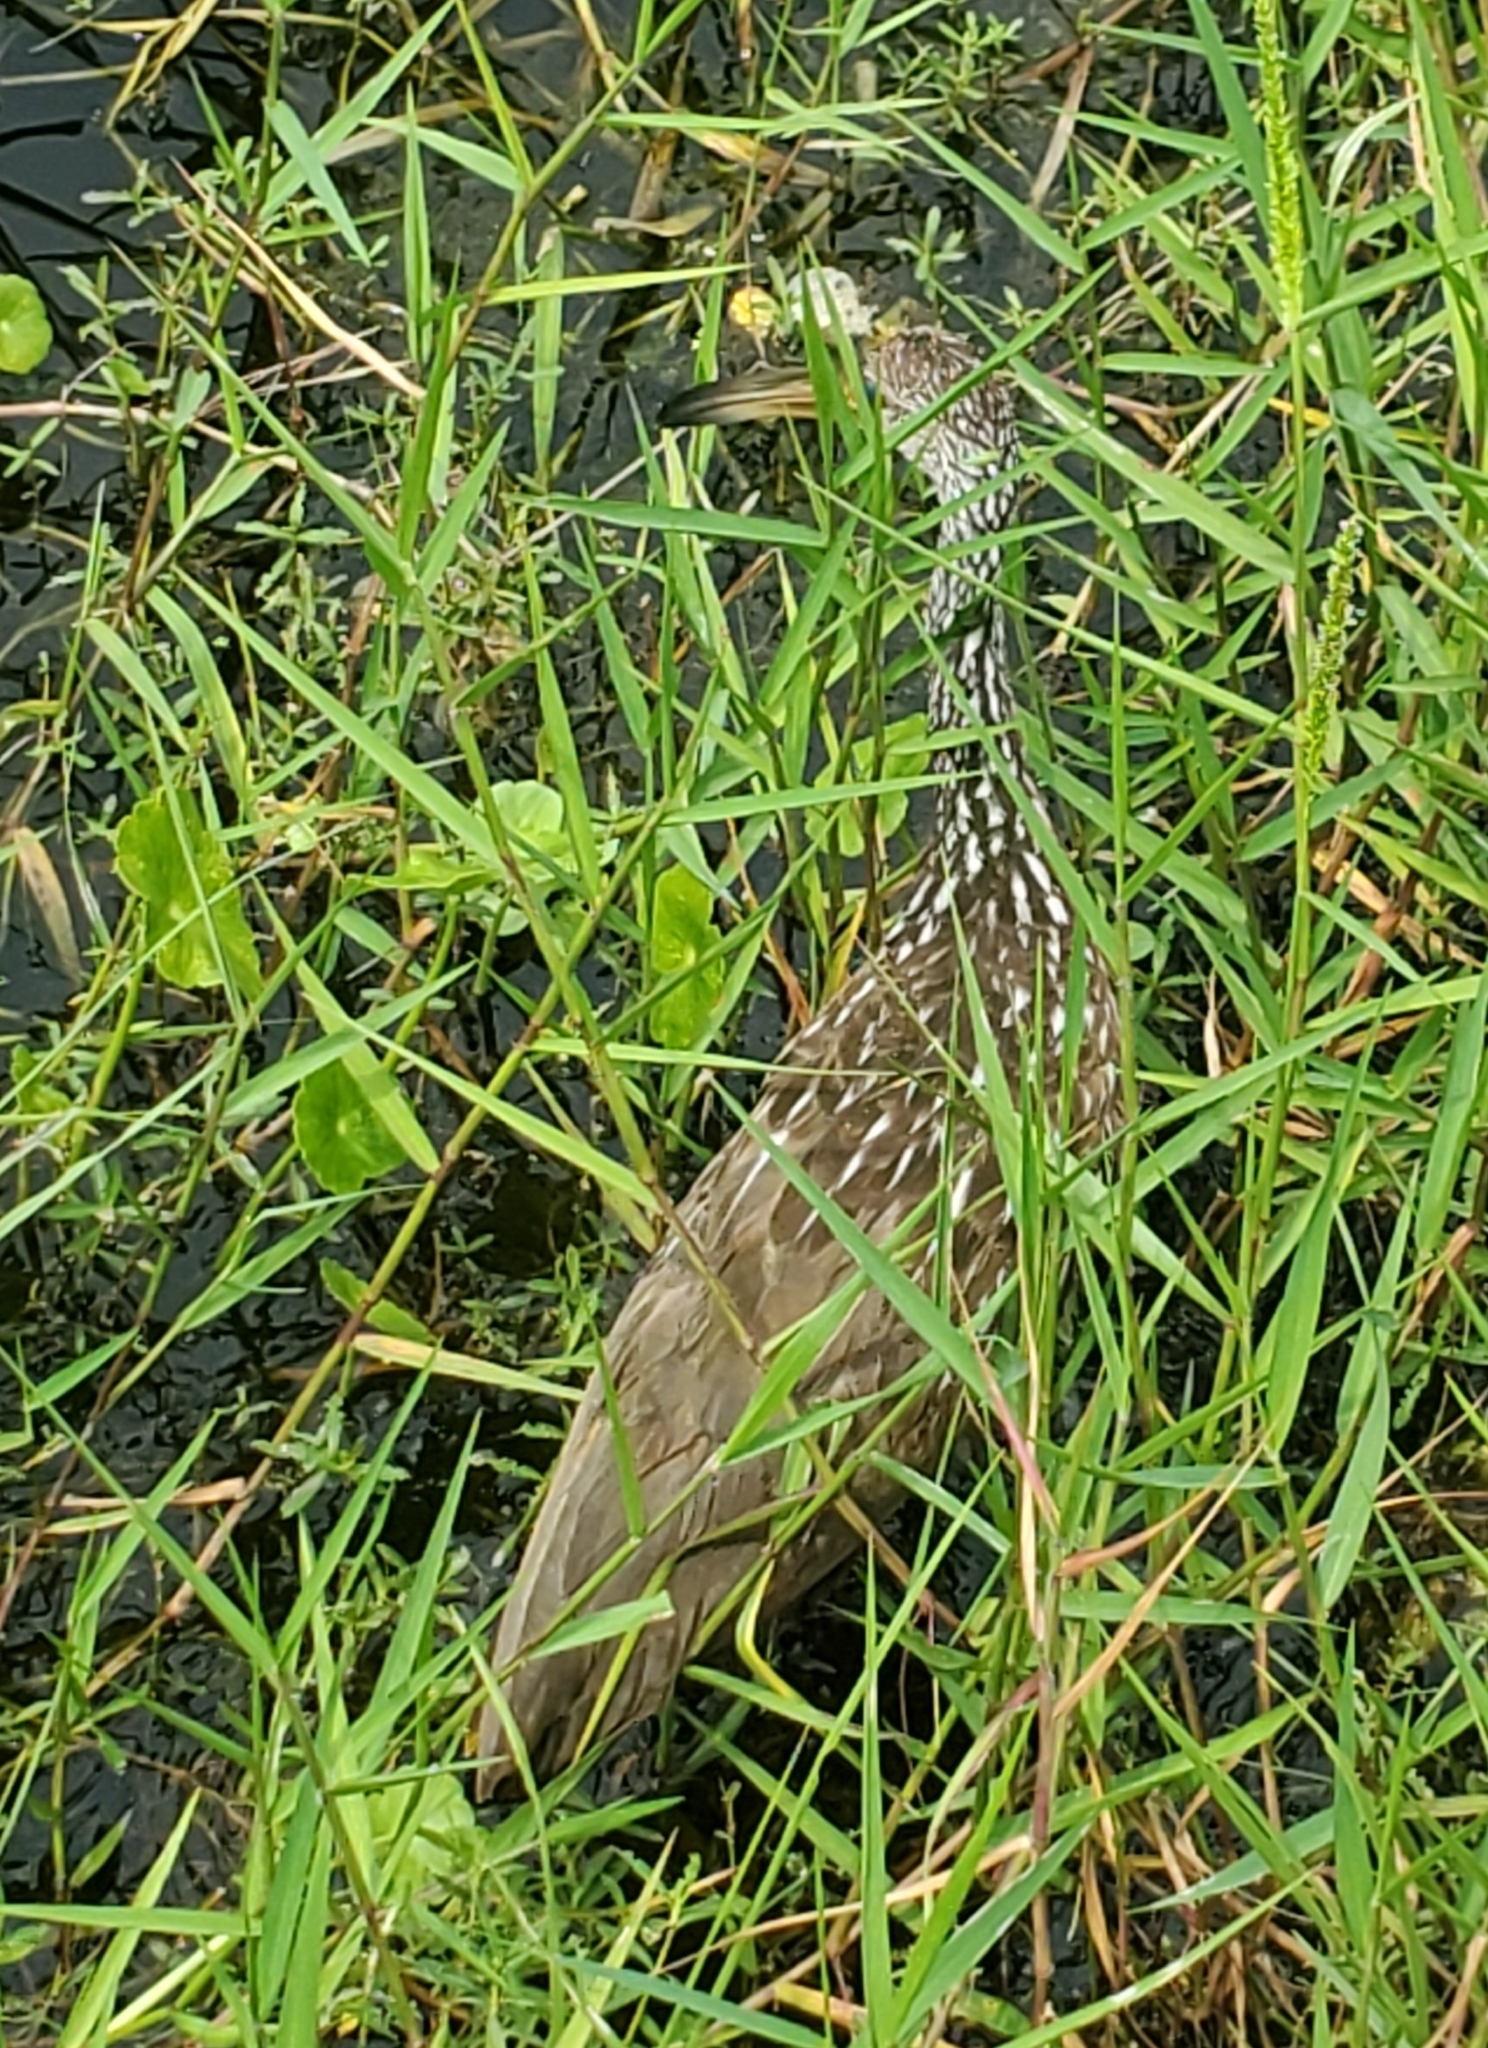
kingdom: Animalia
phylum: Chordata
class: Aves
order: Gruiformes
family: Aramidae
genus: Aramus
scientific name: Aramus guarauna
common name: Limpkin
